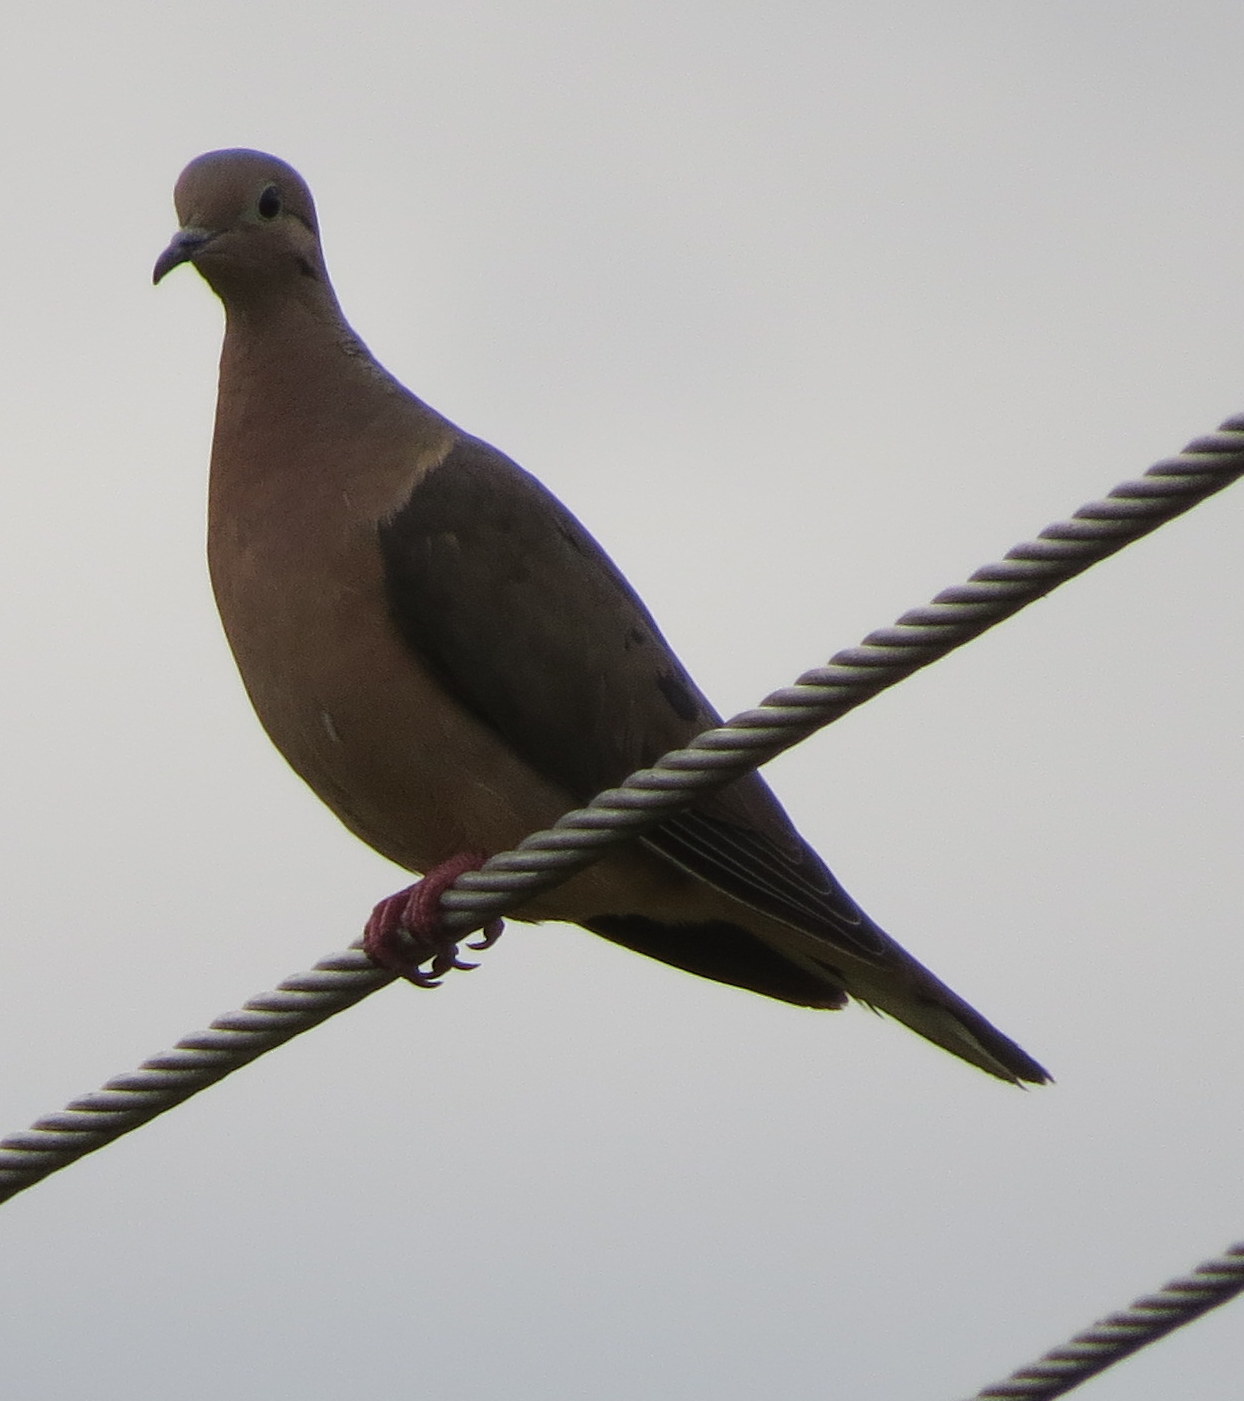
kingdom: Animalia
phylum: Chordata
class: Aves
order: Columbiformes
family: Columbidae
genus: Zenaida
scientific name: Zenaida auriculata
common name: Eared dove
